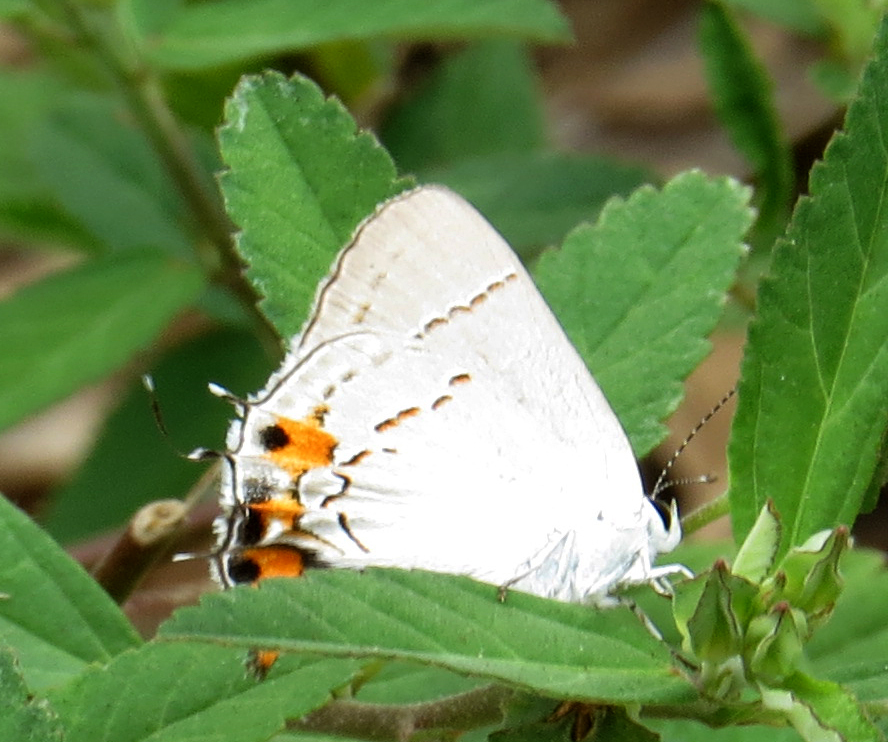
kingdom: Animalia
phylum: Arthropoda
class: Insecta
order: Lepidoptera
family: Lycaenidae
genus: Strymon
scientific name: Strymon melinus
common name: Gray hairstreak
